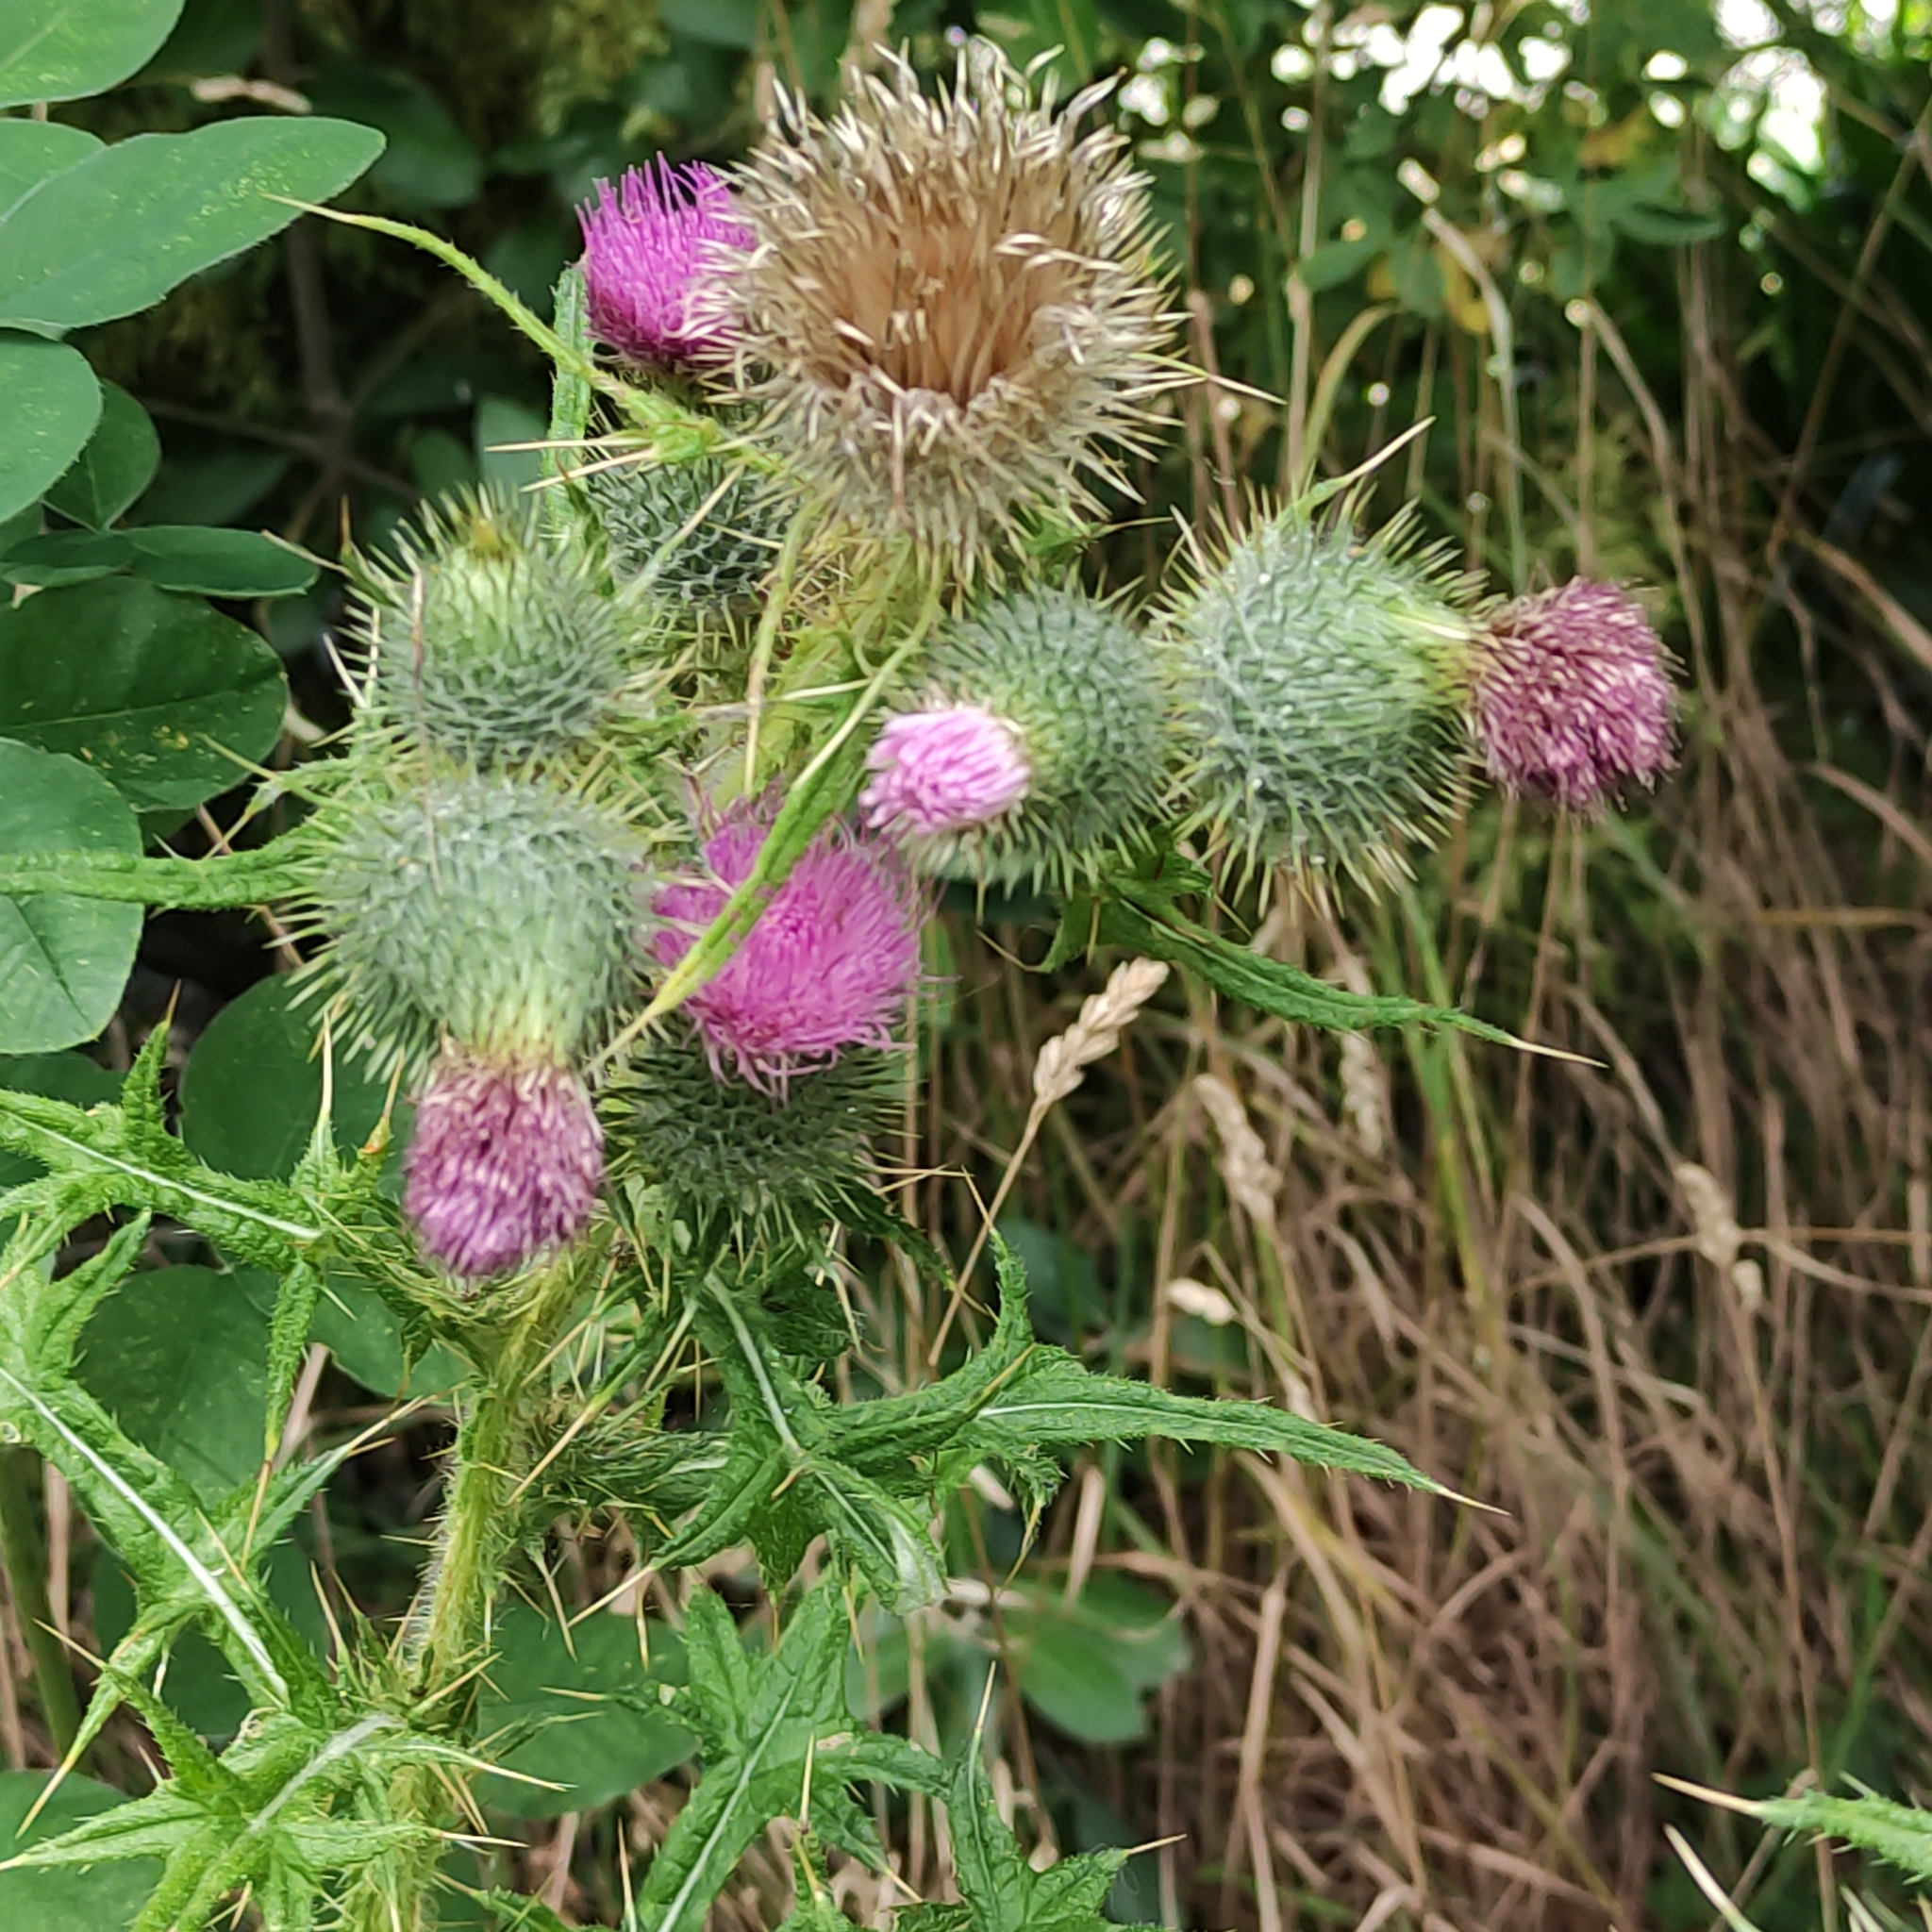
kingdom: Plantae
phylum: Tracheophyta
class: Magnoliopsida
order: Asterales
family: Asteraceae
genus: Cirsium
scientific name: Cirsium vulgare
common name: Bull thistle
